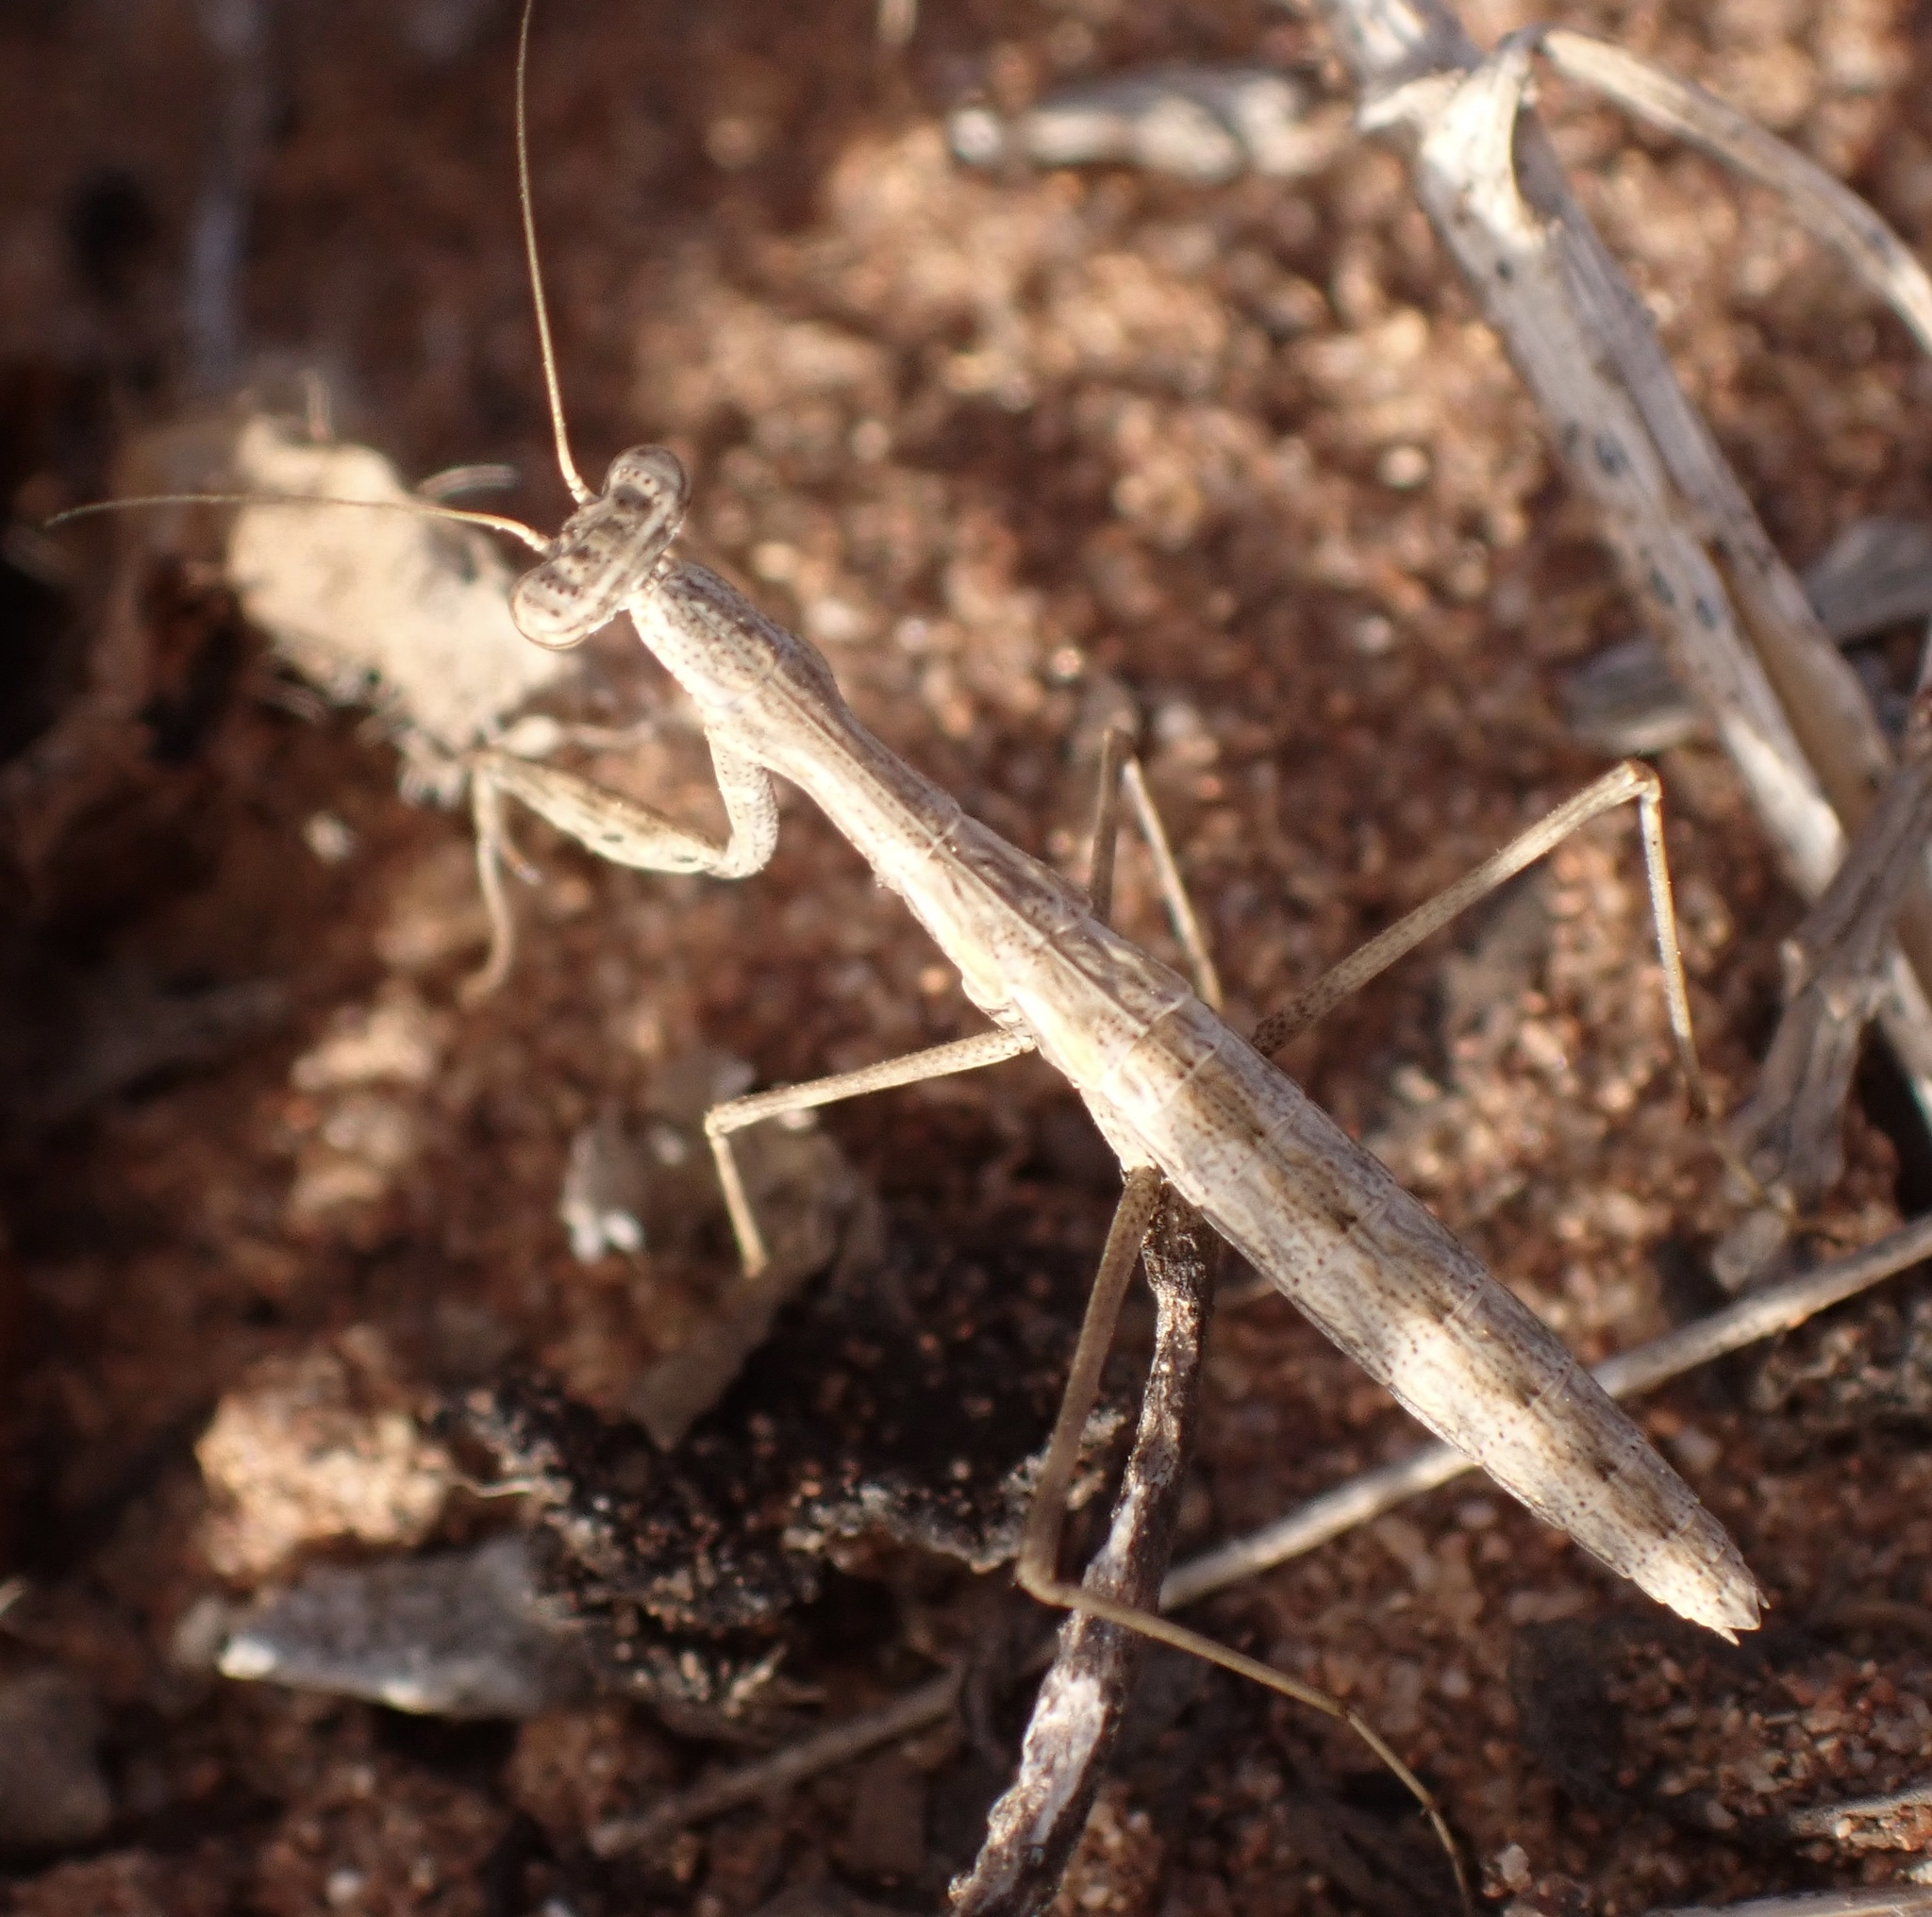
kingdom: Animalia
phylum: Arthropoda
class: Insecta
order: Mantodea
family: Rivetinidae
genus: Rivetina
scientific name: Rivetina baetica
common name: Baetic ground mantis
